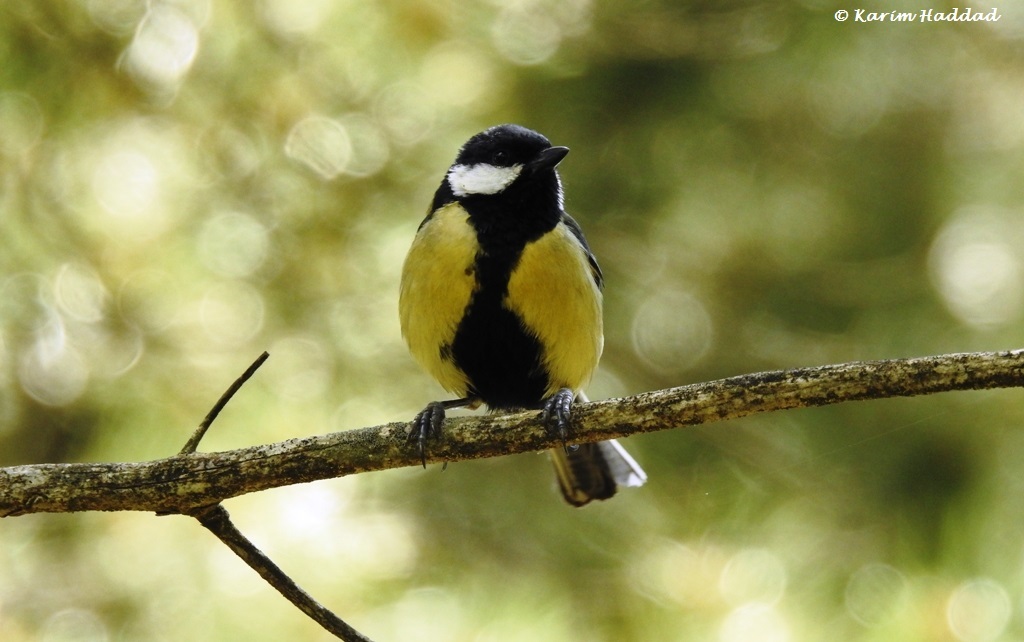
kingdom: Animalia
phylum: Chordata
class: Aves
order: Passeriformes
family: Paridae
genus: Parus
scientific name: Parus major
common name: Great tit
